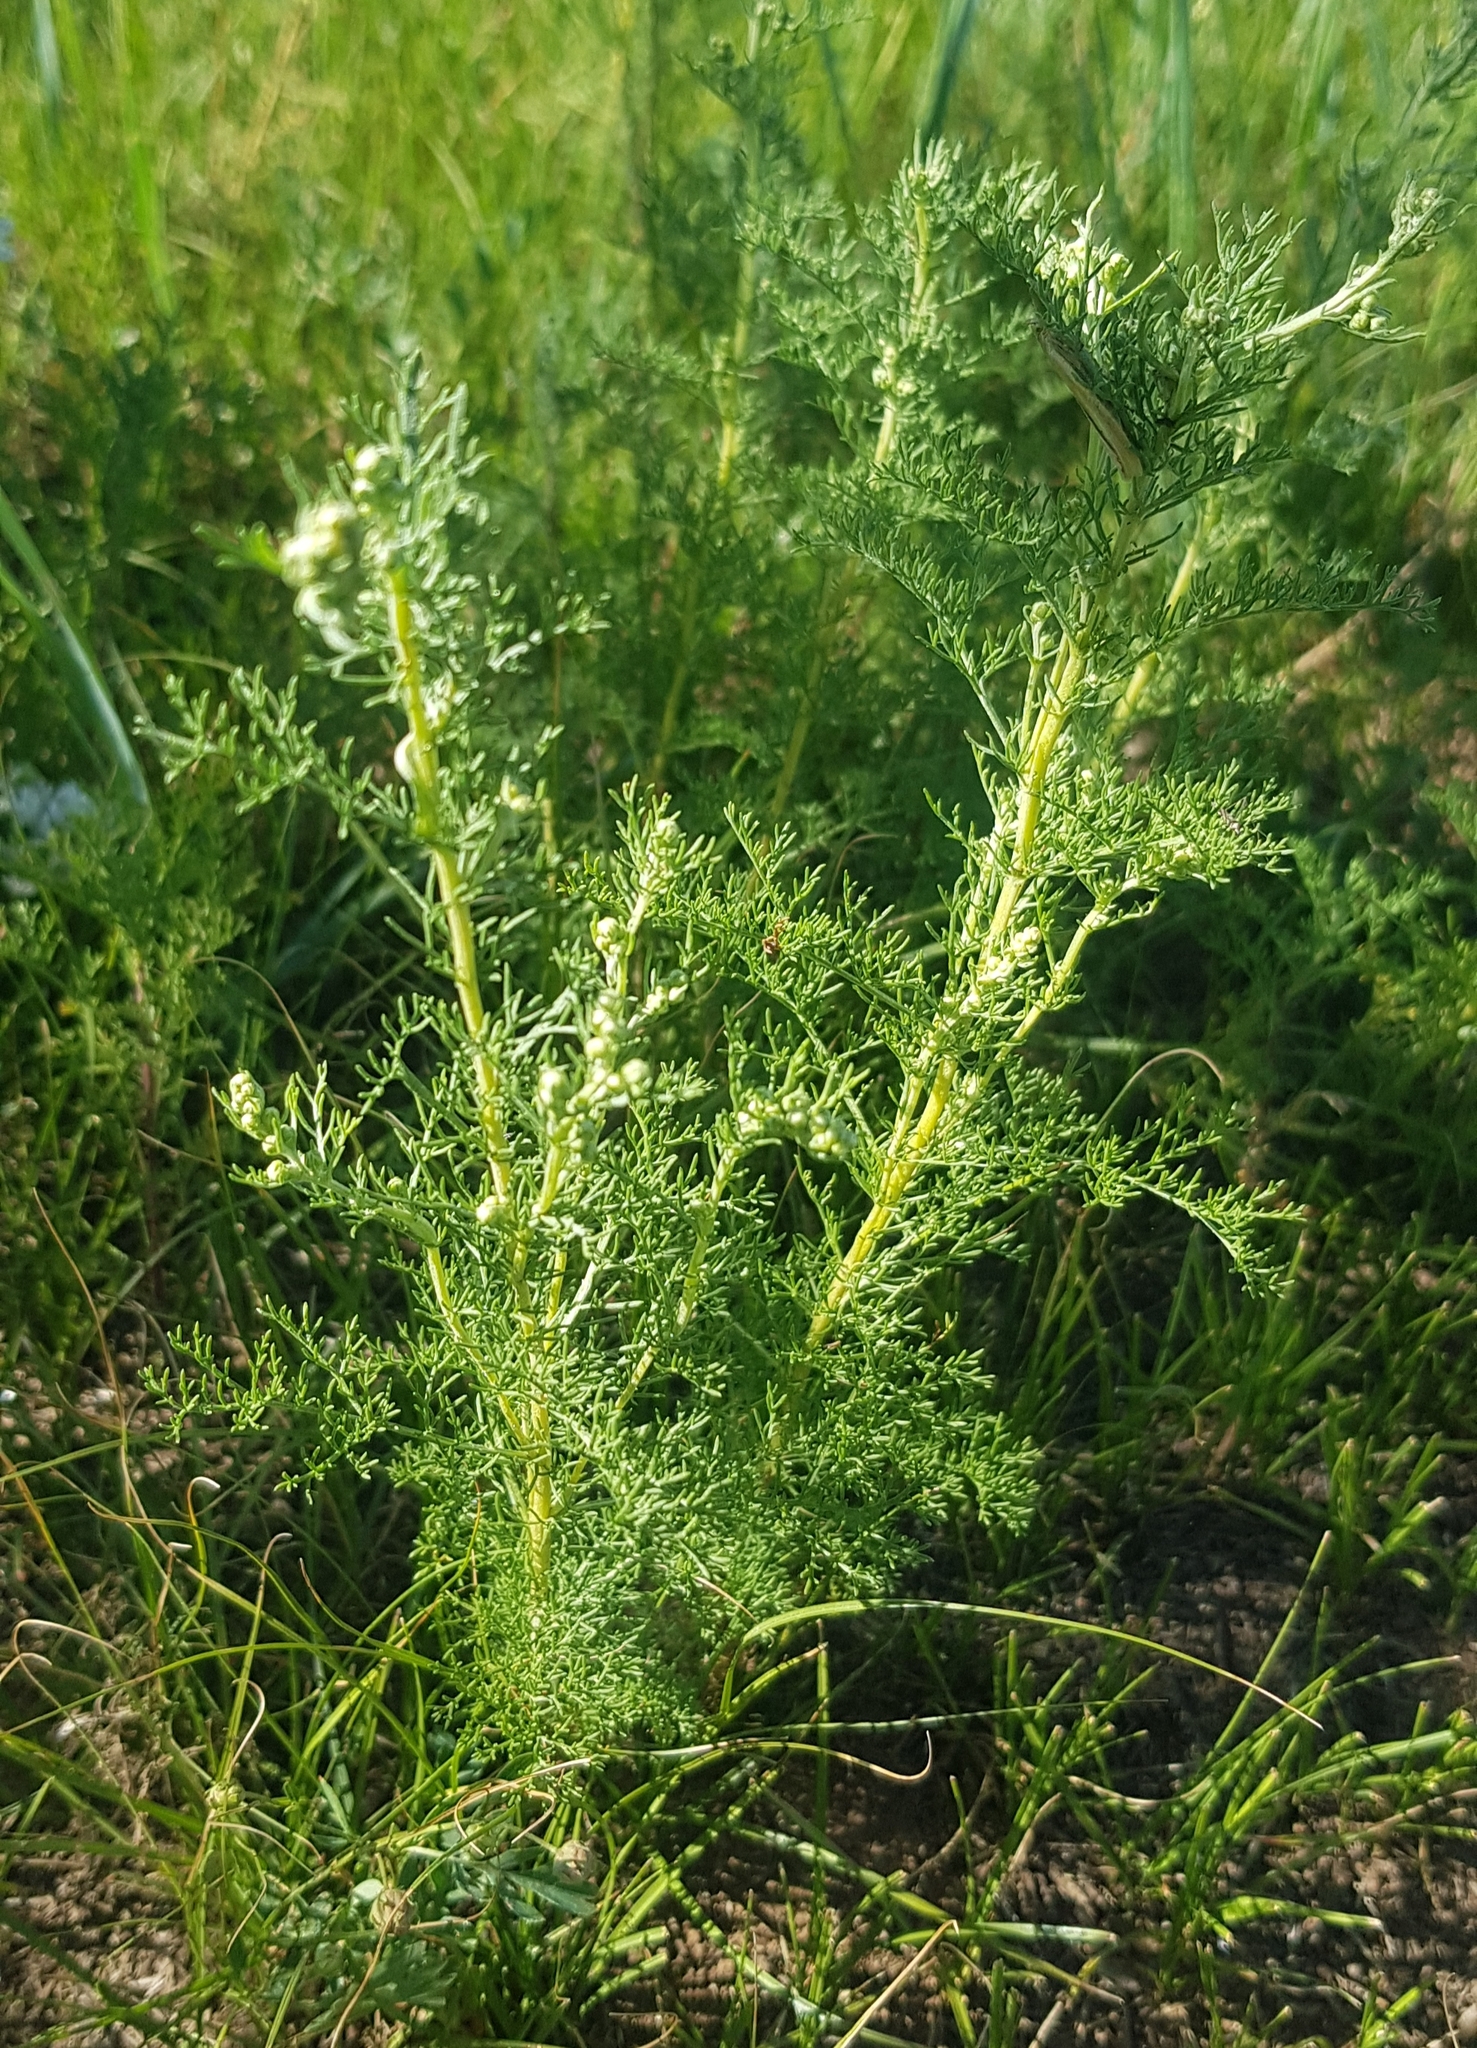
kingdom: Plantae
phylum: Tracheophyta
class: Magnoliopsida
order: Asterales
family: Asteraceae
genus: Artemisia
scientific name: Artemisia adamsii
